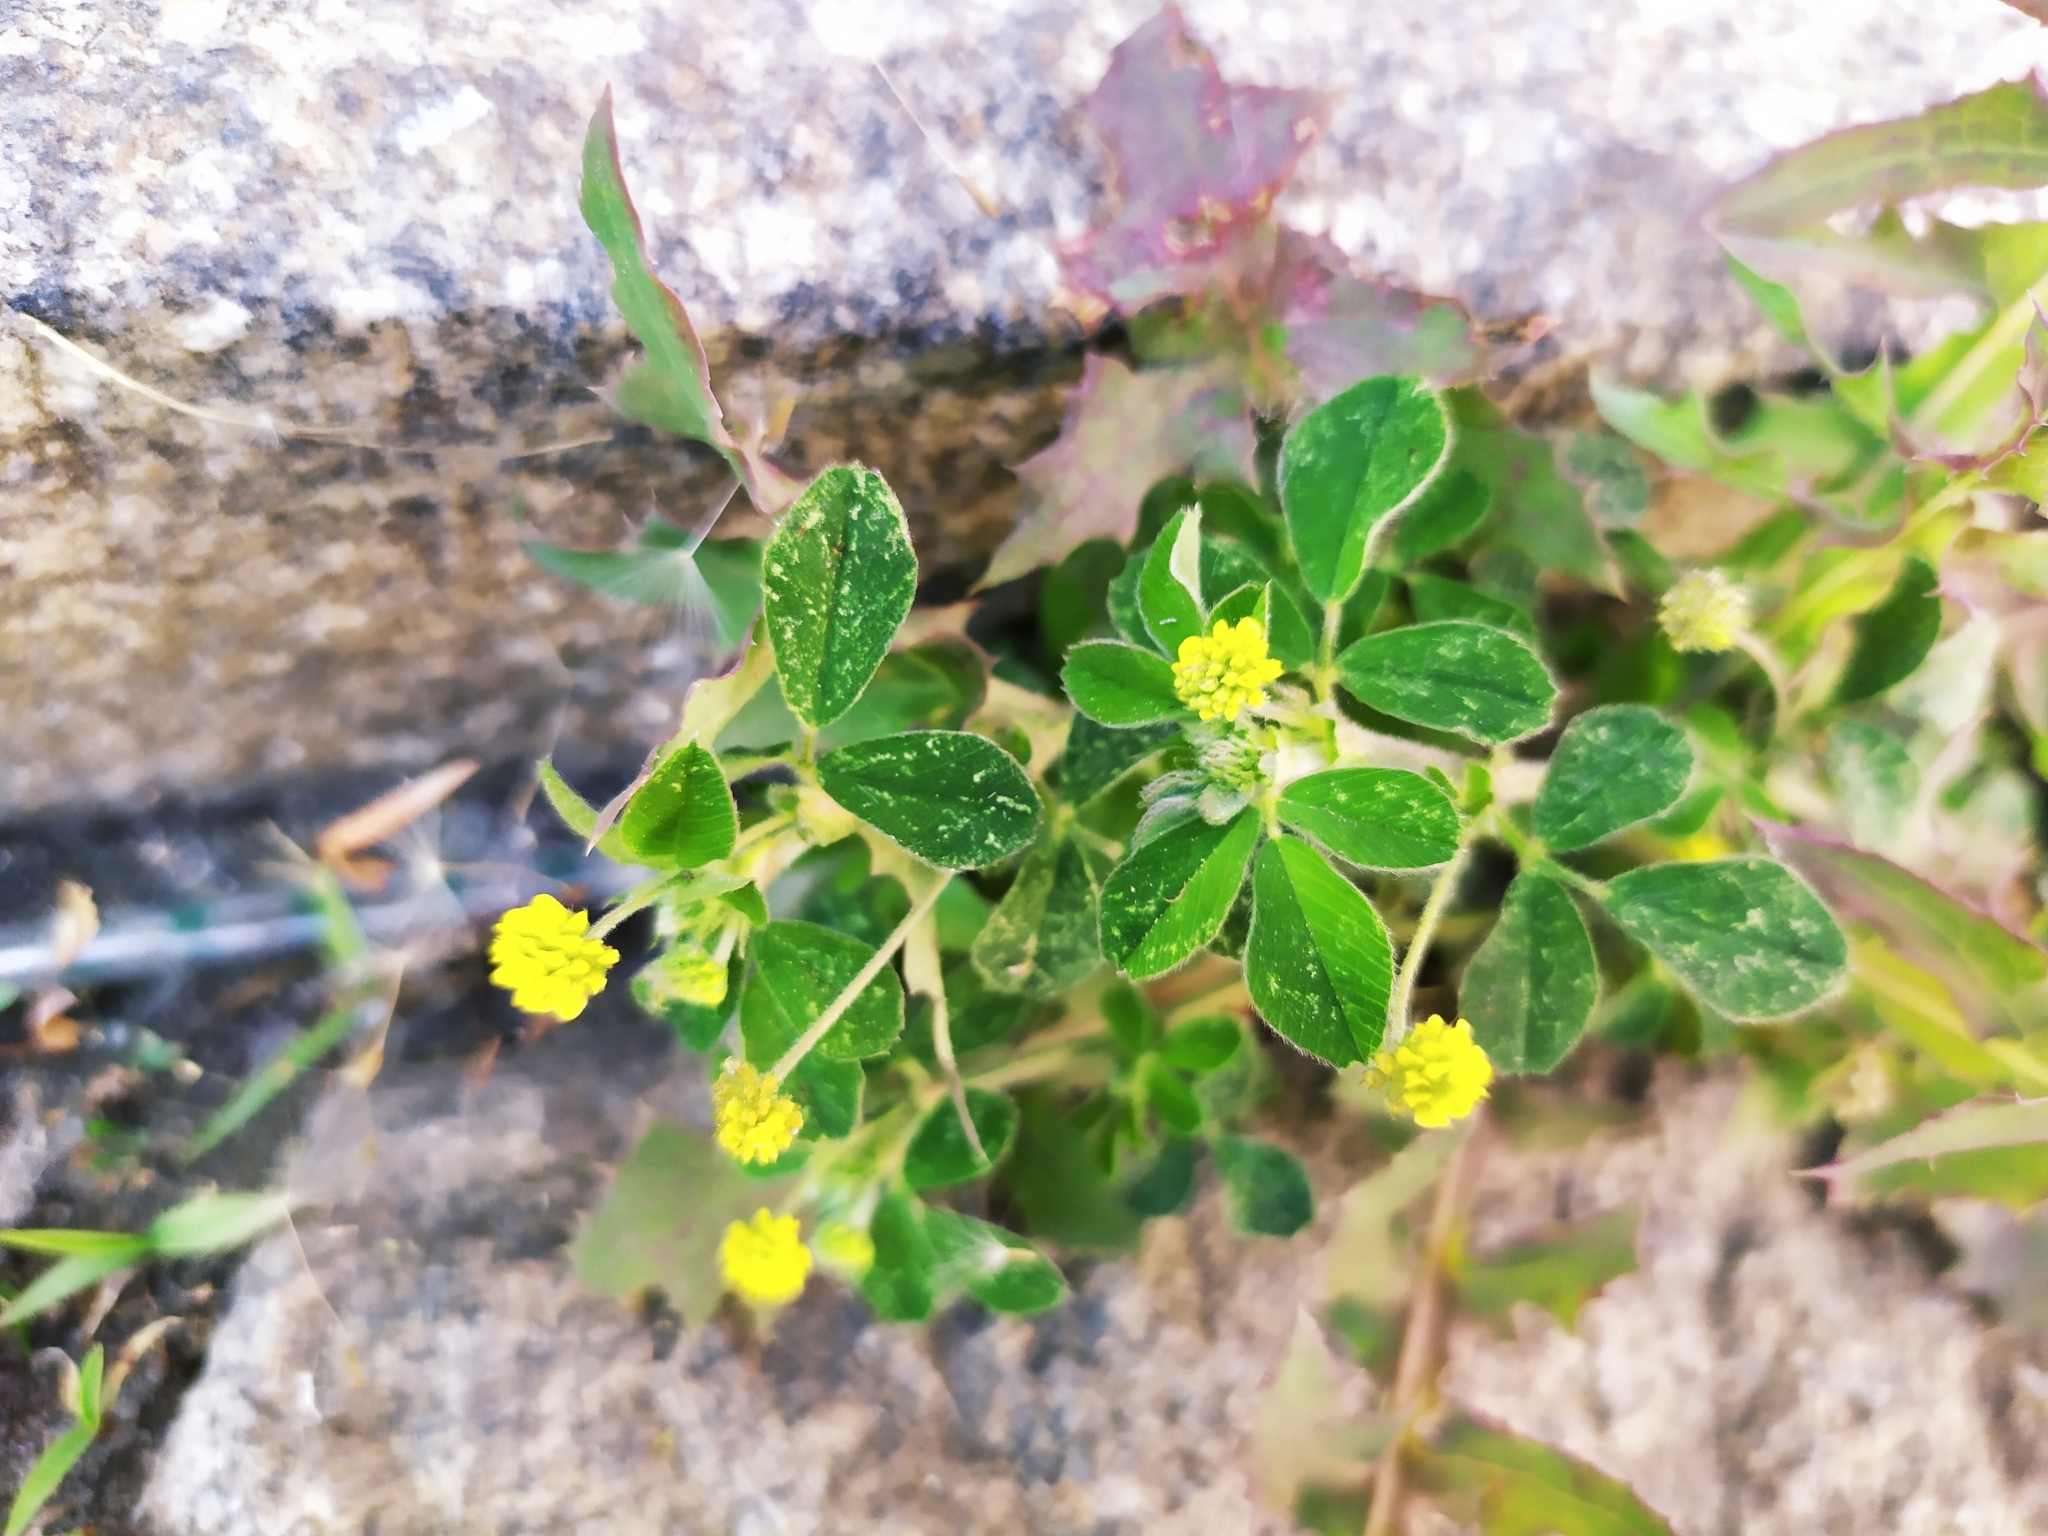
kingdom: Plantae
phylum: Tracheophyta
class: Magnoliopsida
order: Fabales
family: Fabaceae
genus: Medicago
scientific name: Medicago lupulina
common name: Black medick
